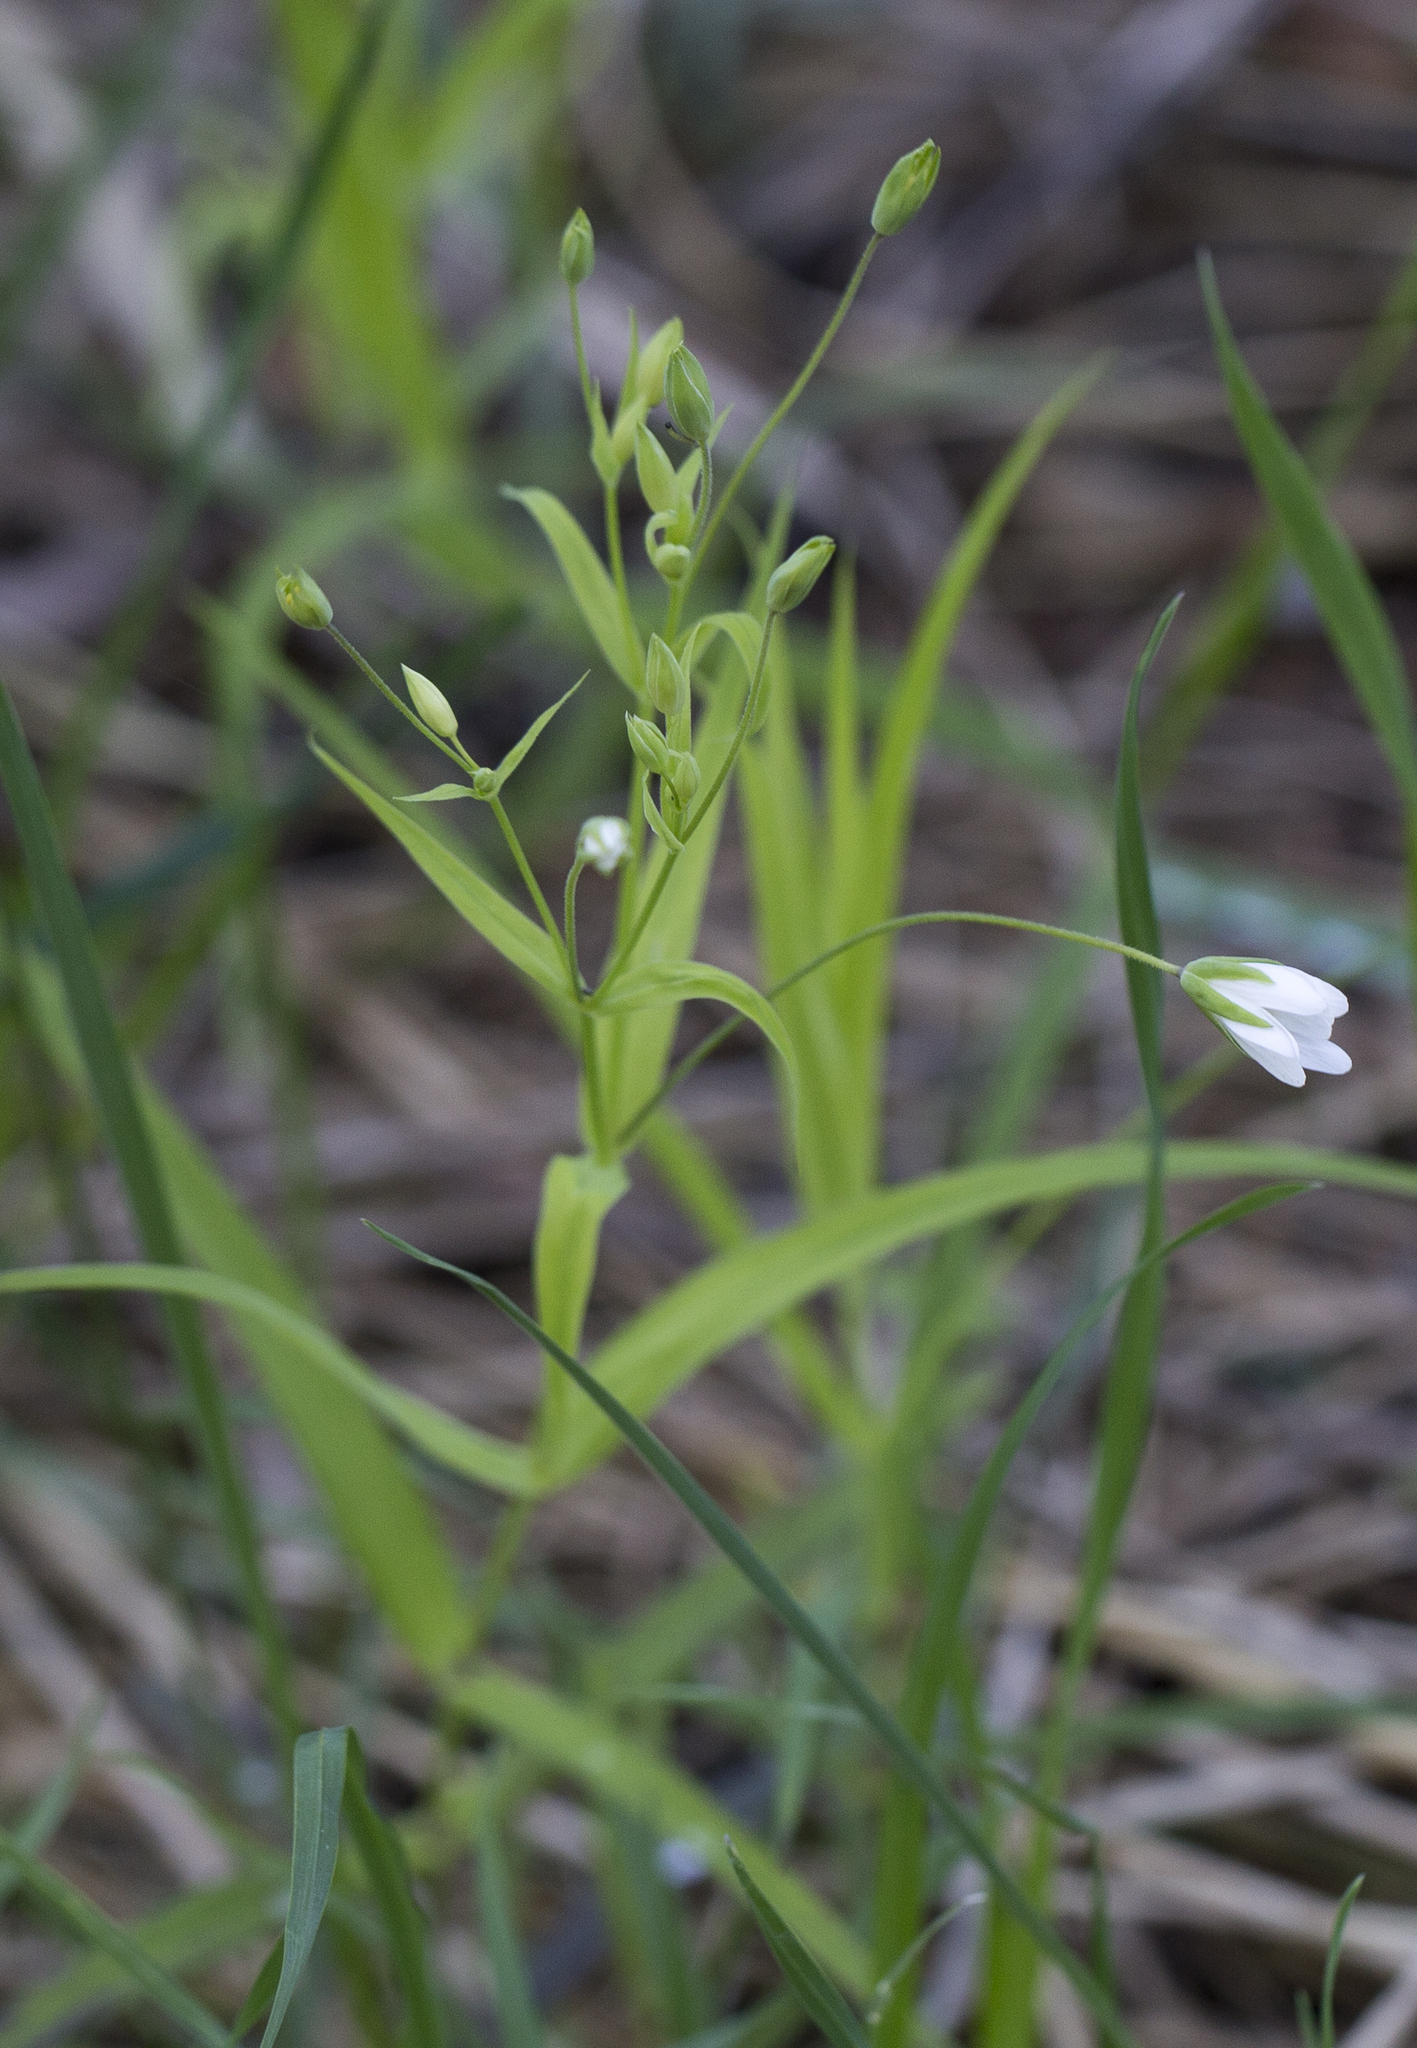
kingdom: Plantae
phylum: Tracheophyta
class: Magnoliopsida
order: Caryophyllales
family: Caryophyllaceae
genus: Rabelera
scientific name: Rabelera holostea
